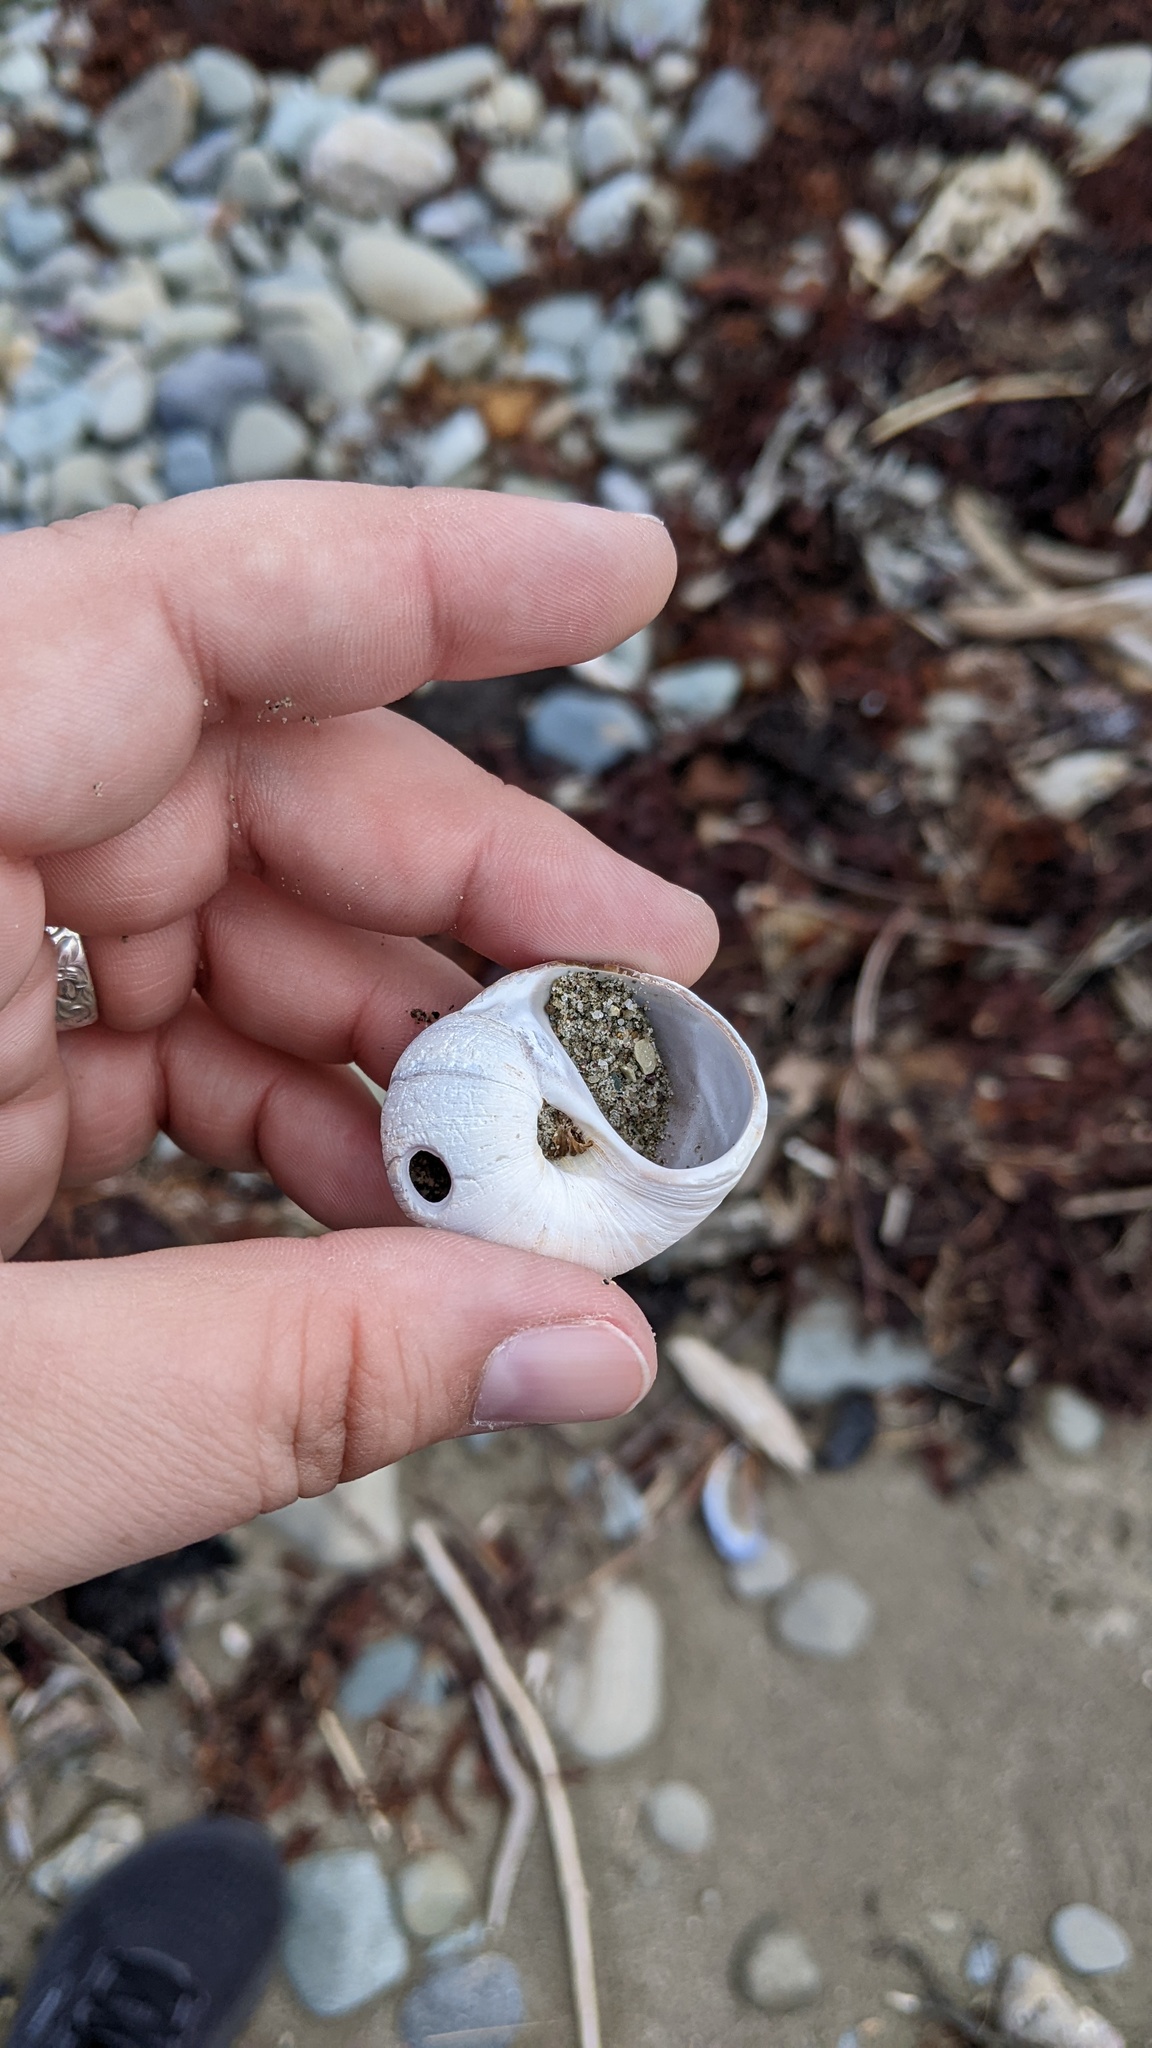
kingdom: Animalia
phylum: Mollusca
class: Gastropoda
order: Littorinimorpha
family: Naticidae
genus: Euspira
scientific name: Euspira heros
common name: Common northern moonsnail
